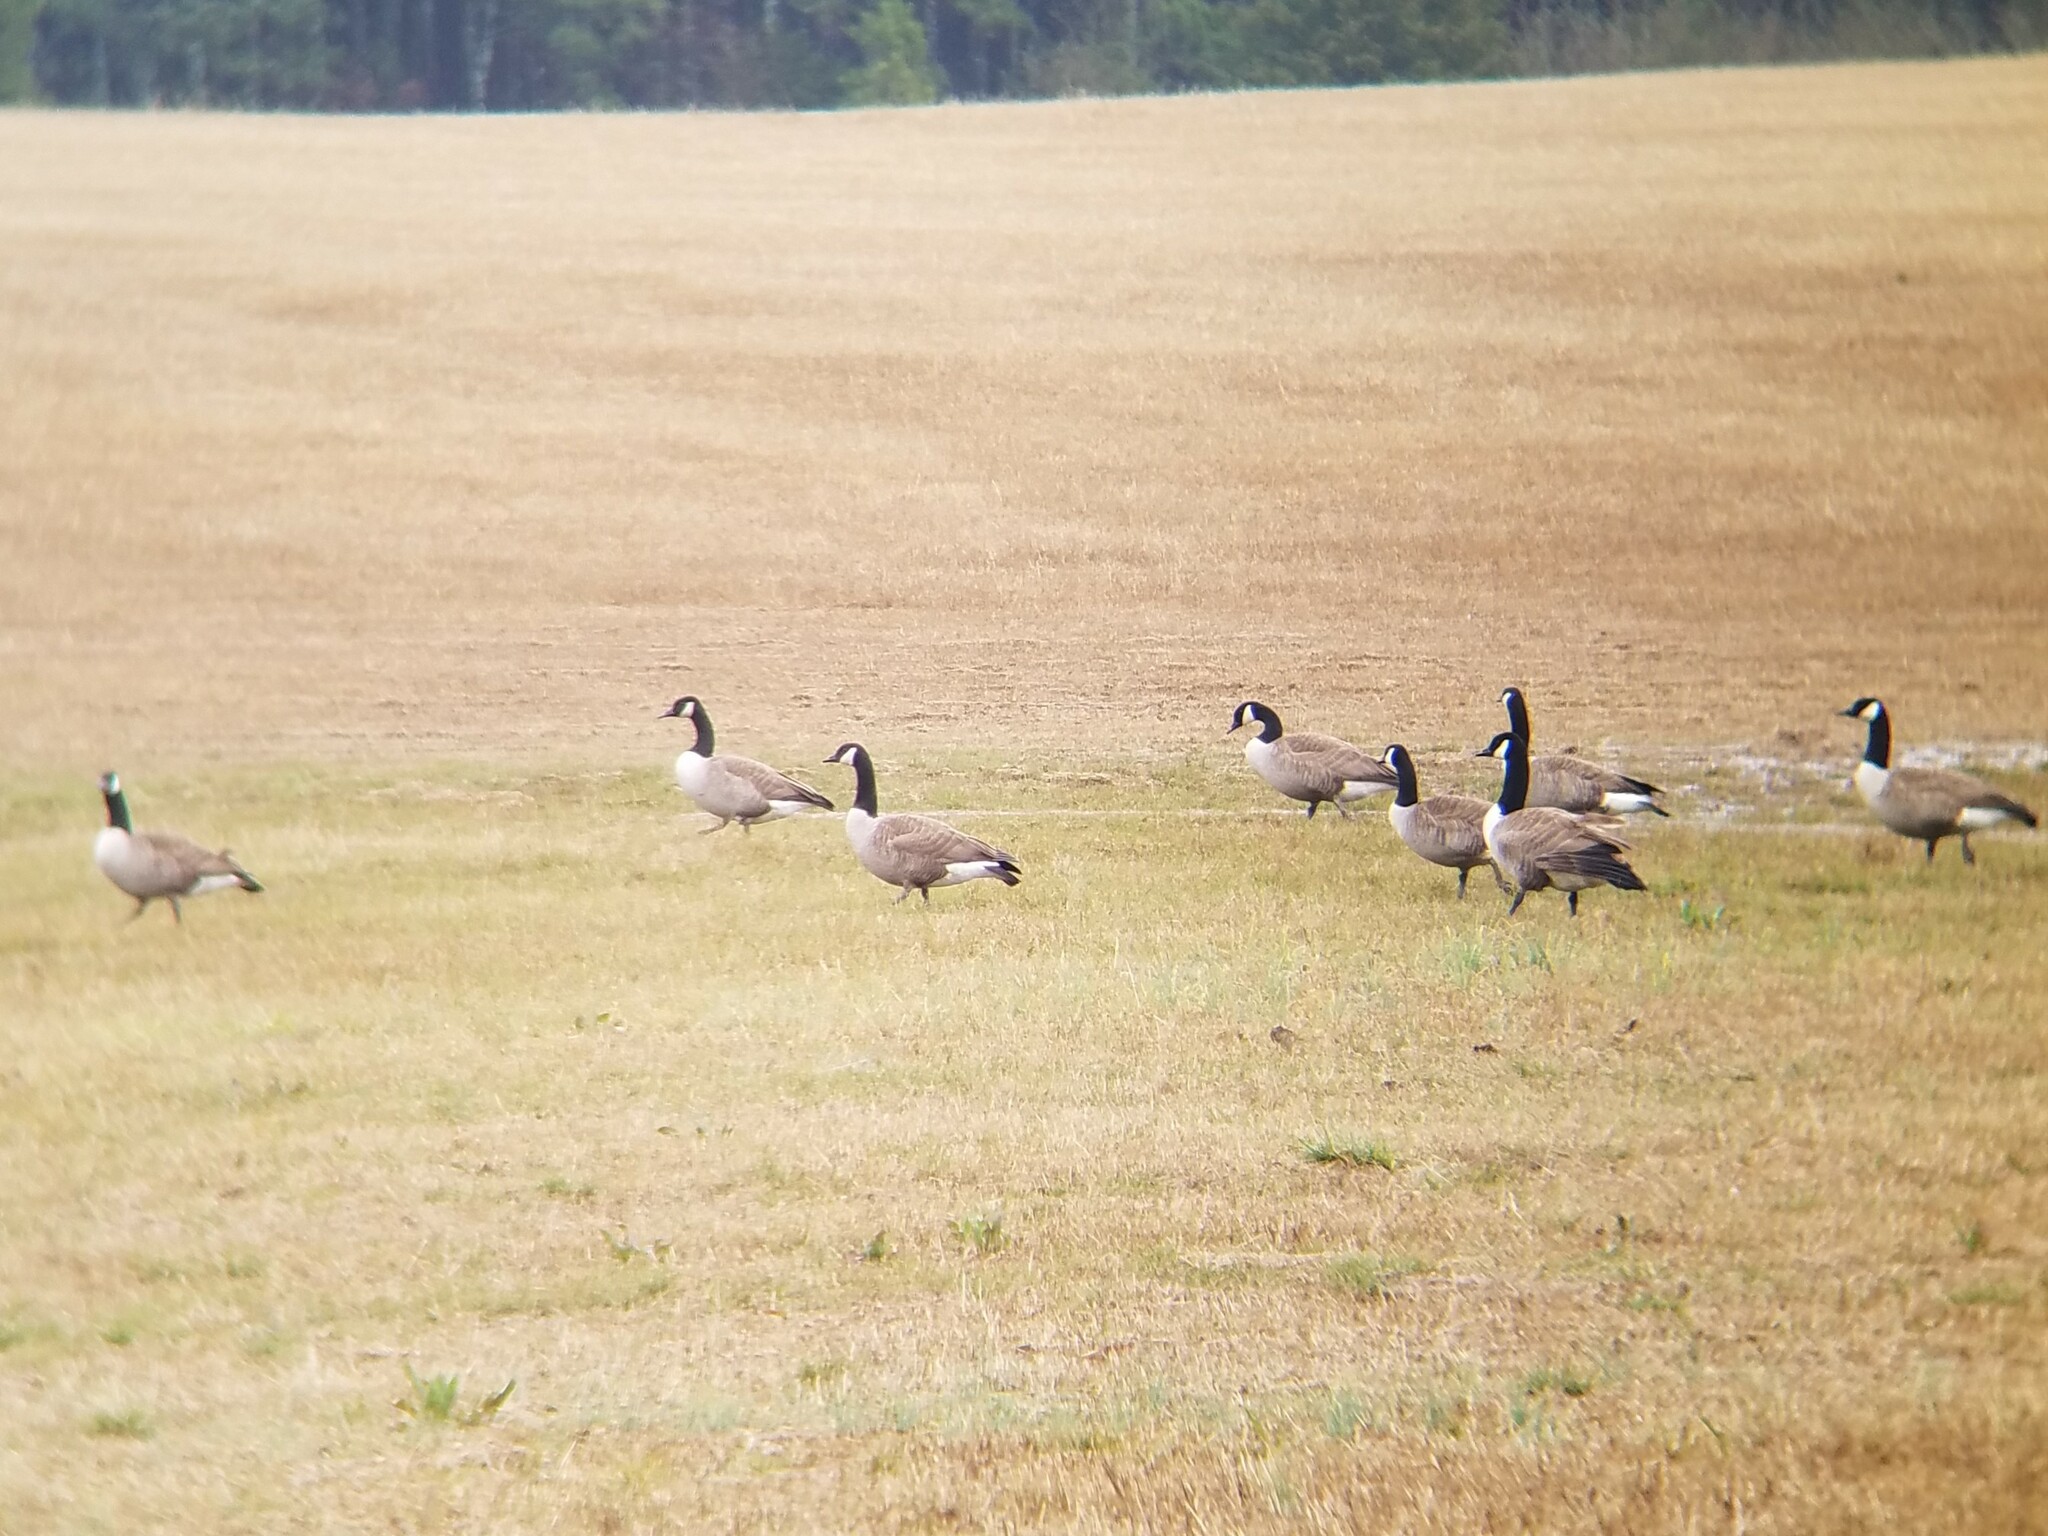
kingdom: Animalia
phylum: Chordata
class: Aves
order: Anseriformes
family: Anatidae
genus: Branta
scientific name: Branta canadensis
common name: Canada goose
